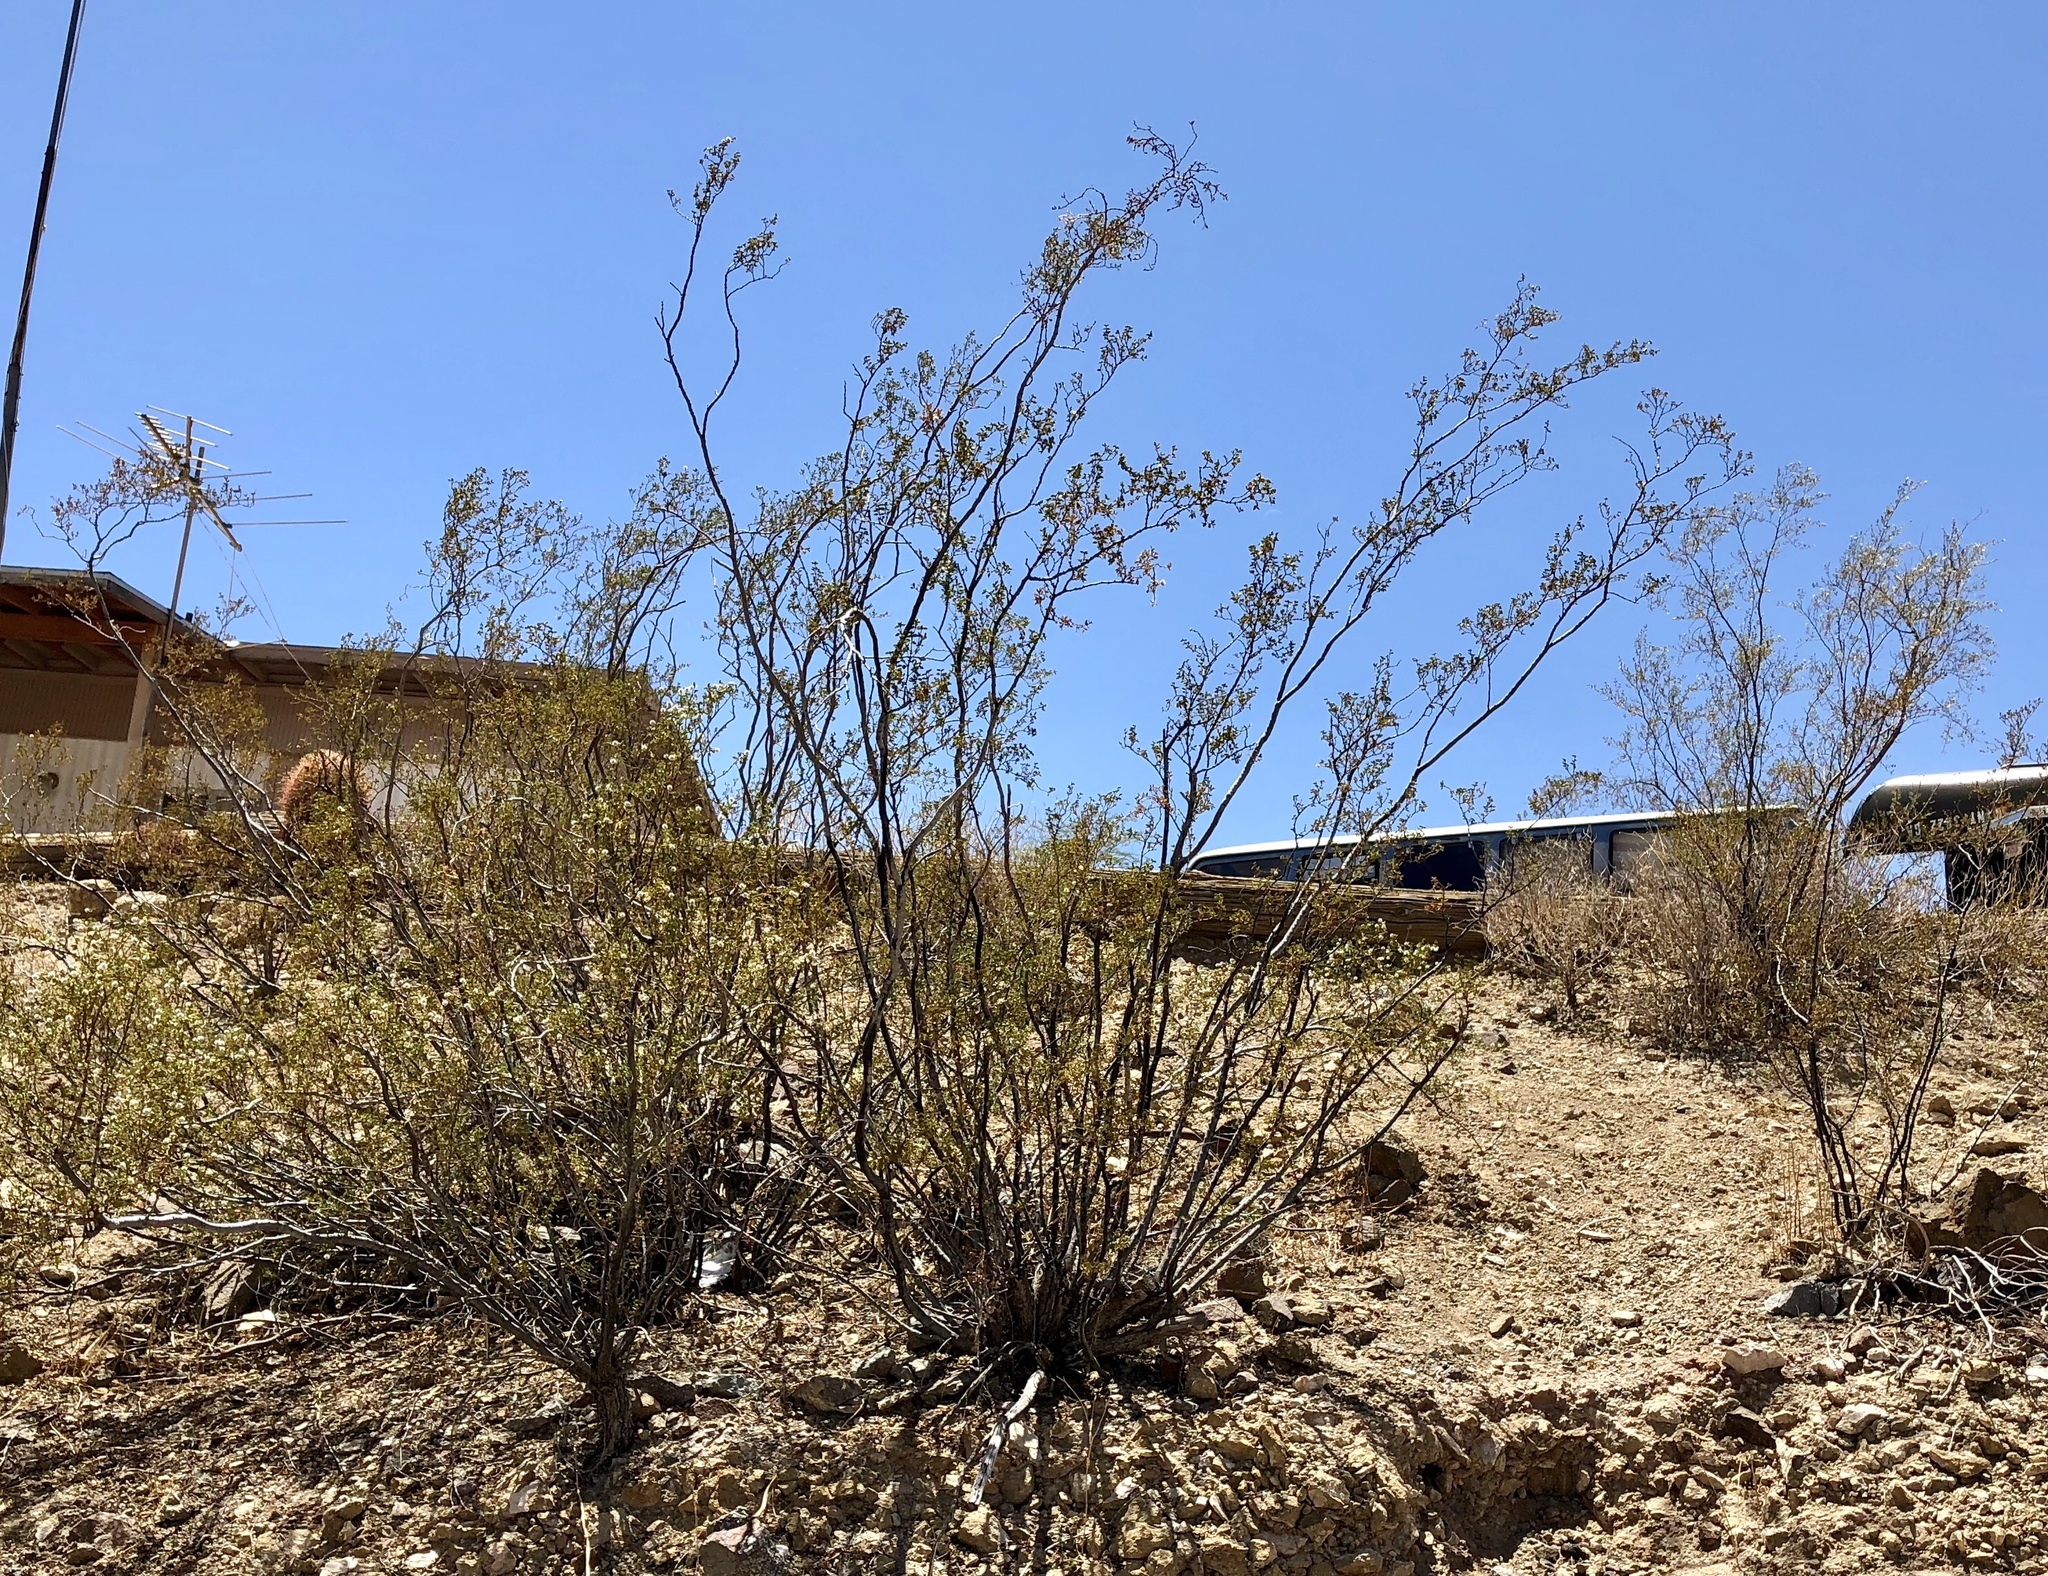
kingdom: Plantae
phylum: Tracheophyta
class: Magnoliopsida
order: Zygophyllales
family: Zygophyllaceae
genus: Larrea
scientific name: Larrea tridentata
